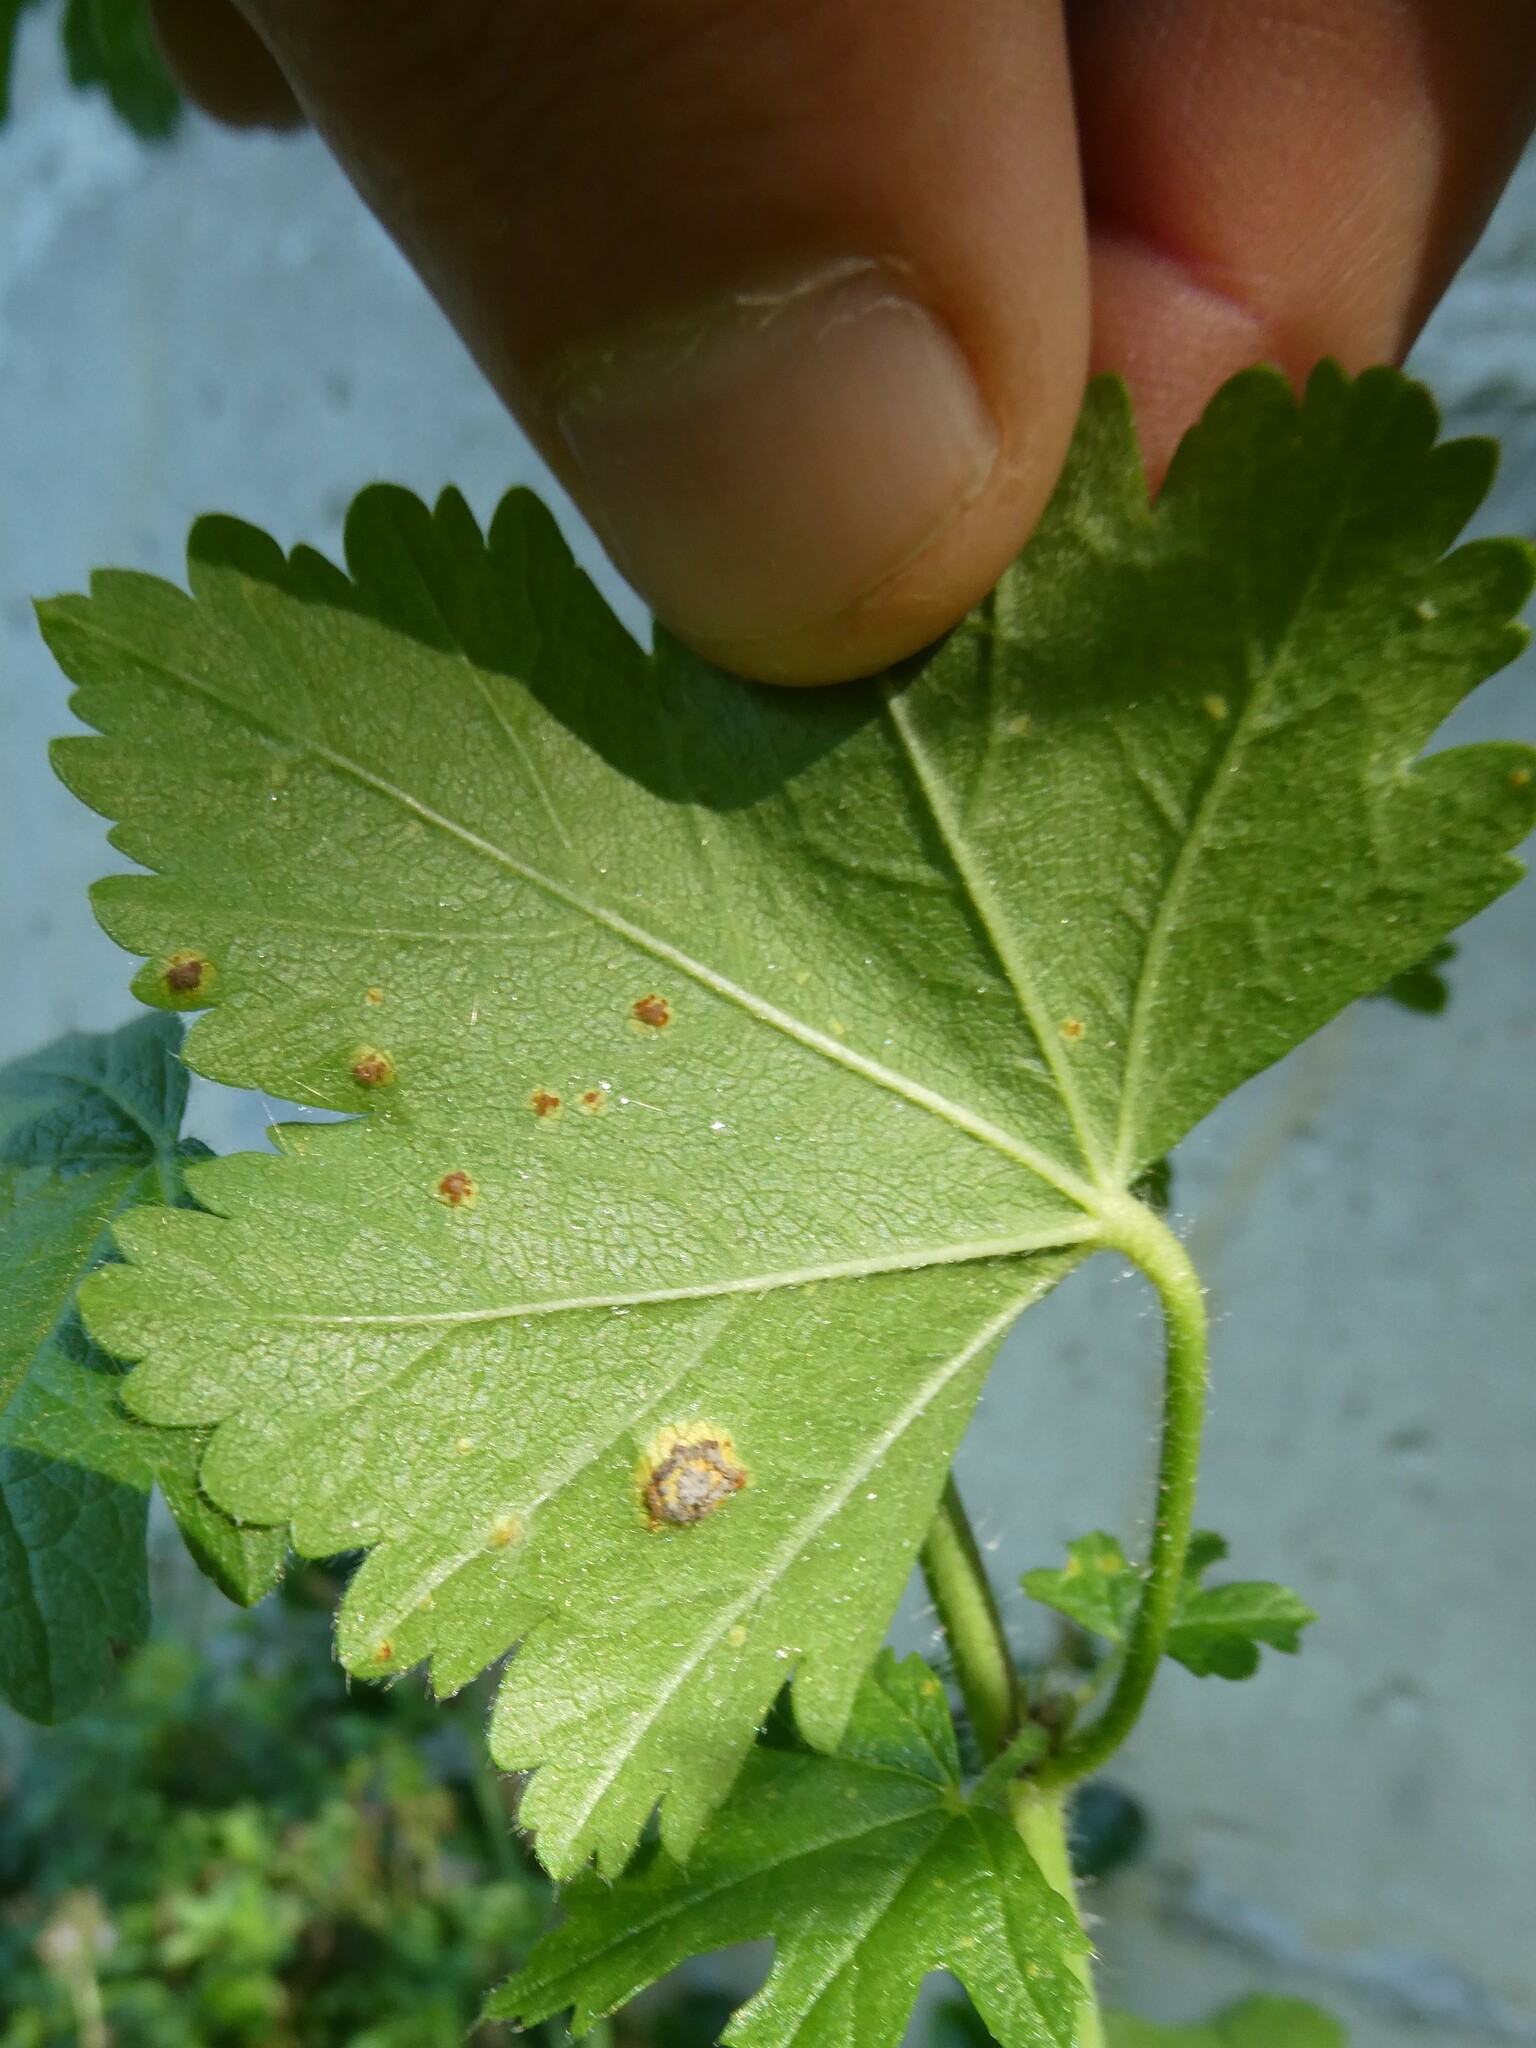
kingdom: Fungi
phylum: Basidiomycota
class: Pucciniomycetes
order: Pucciniales
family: Pucciniaceae
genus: Puccinia
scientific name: Puccinia malvacearum
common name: Hollyhock rust
